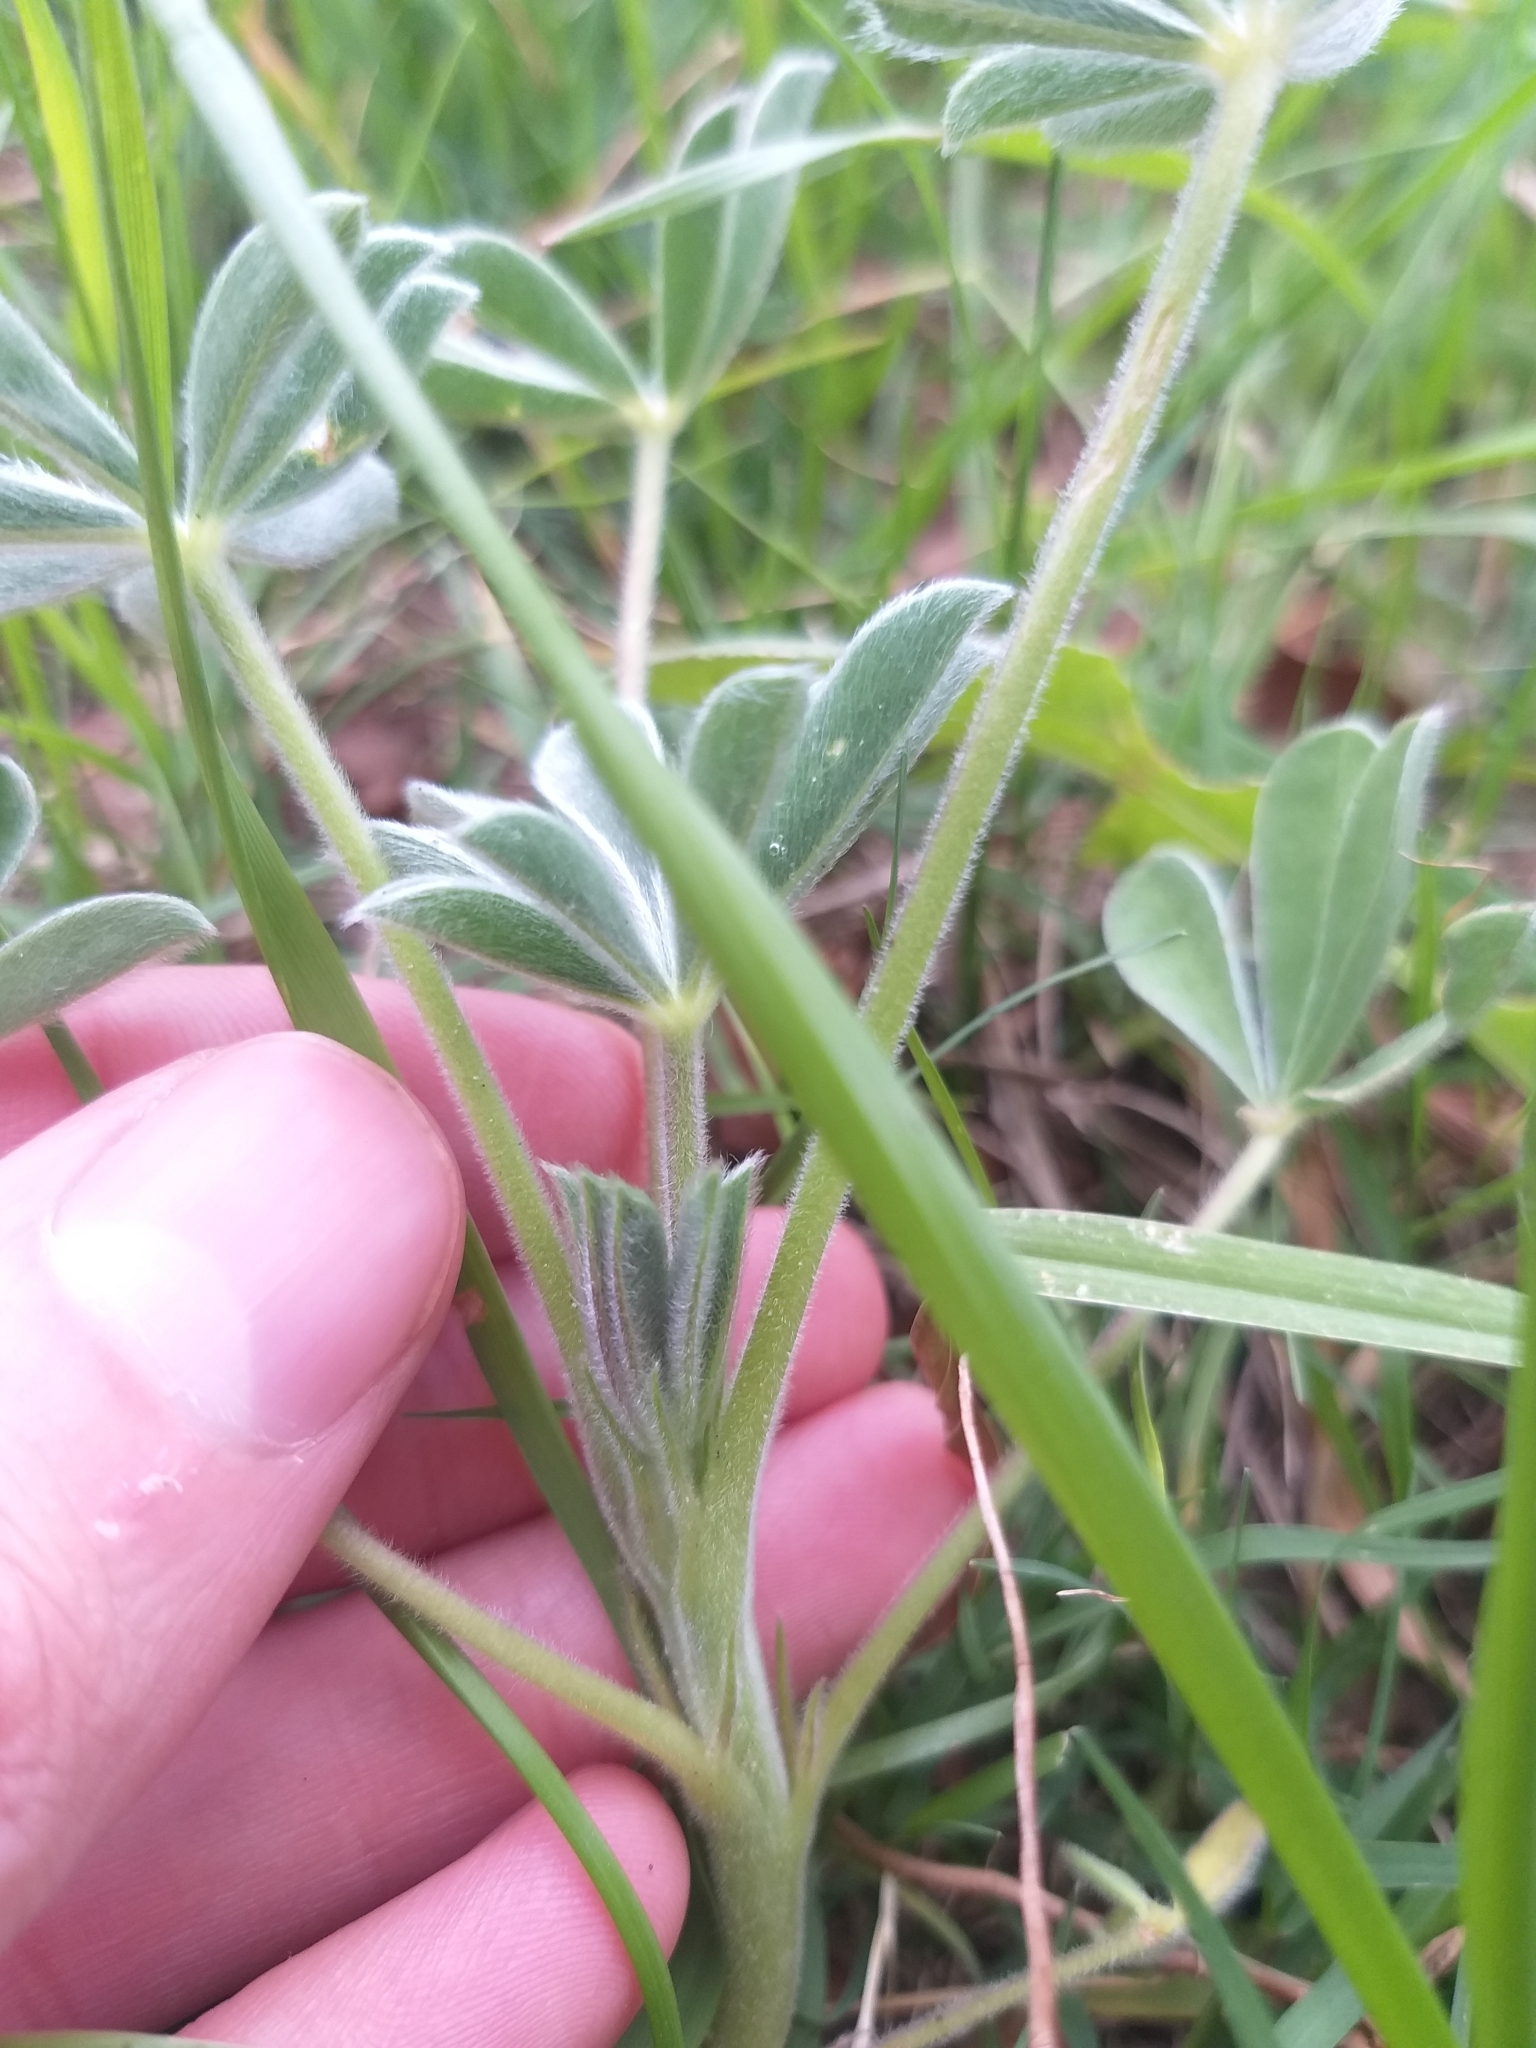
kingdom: Plantae
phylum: Tracheophyta
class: Magnoliopsida
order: Fabales
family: Fabaceae
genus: Lupinus
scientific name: Lupinus cosentinii
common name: Hairy blue lupin
